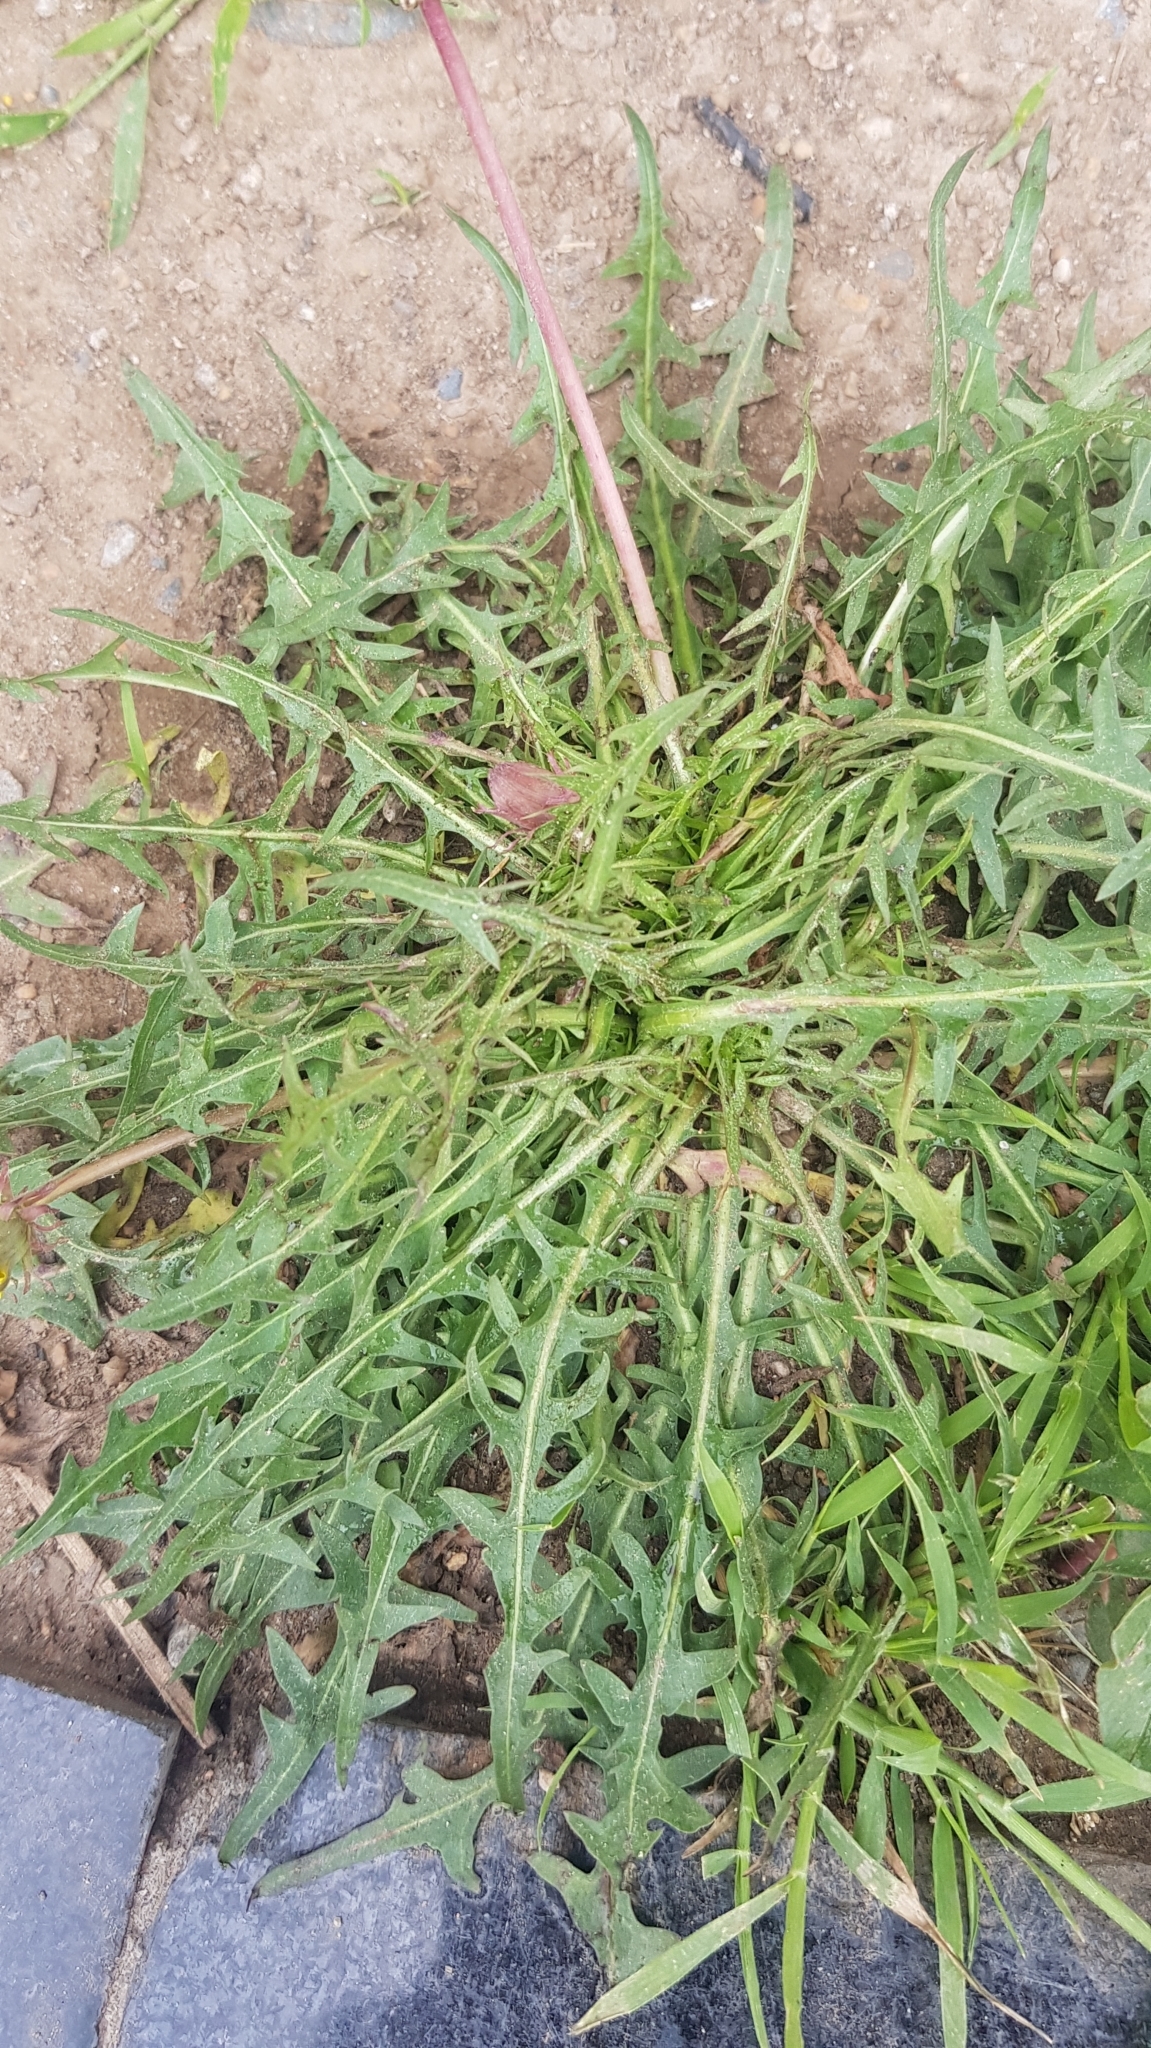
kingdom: Plantae
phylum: Tracheophyta
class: Magnoliopsida
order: Asterales
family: Asteraceae
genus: Taraxacum
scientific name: Taraxacum officinale
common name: Common dandelion
